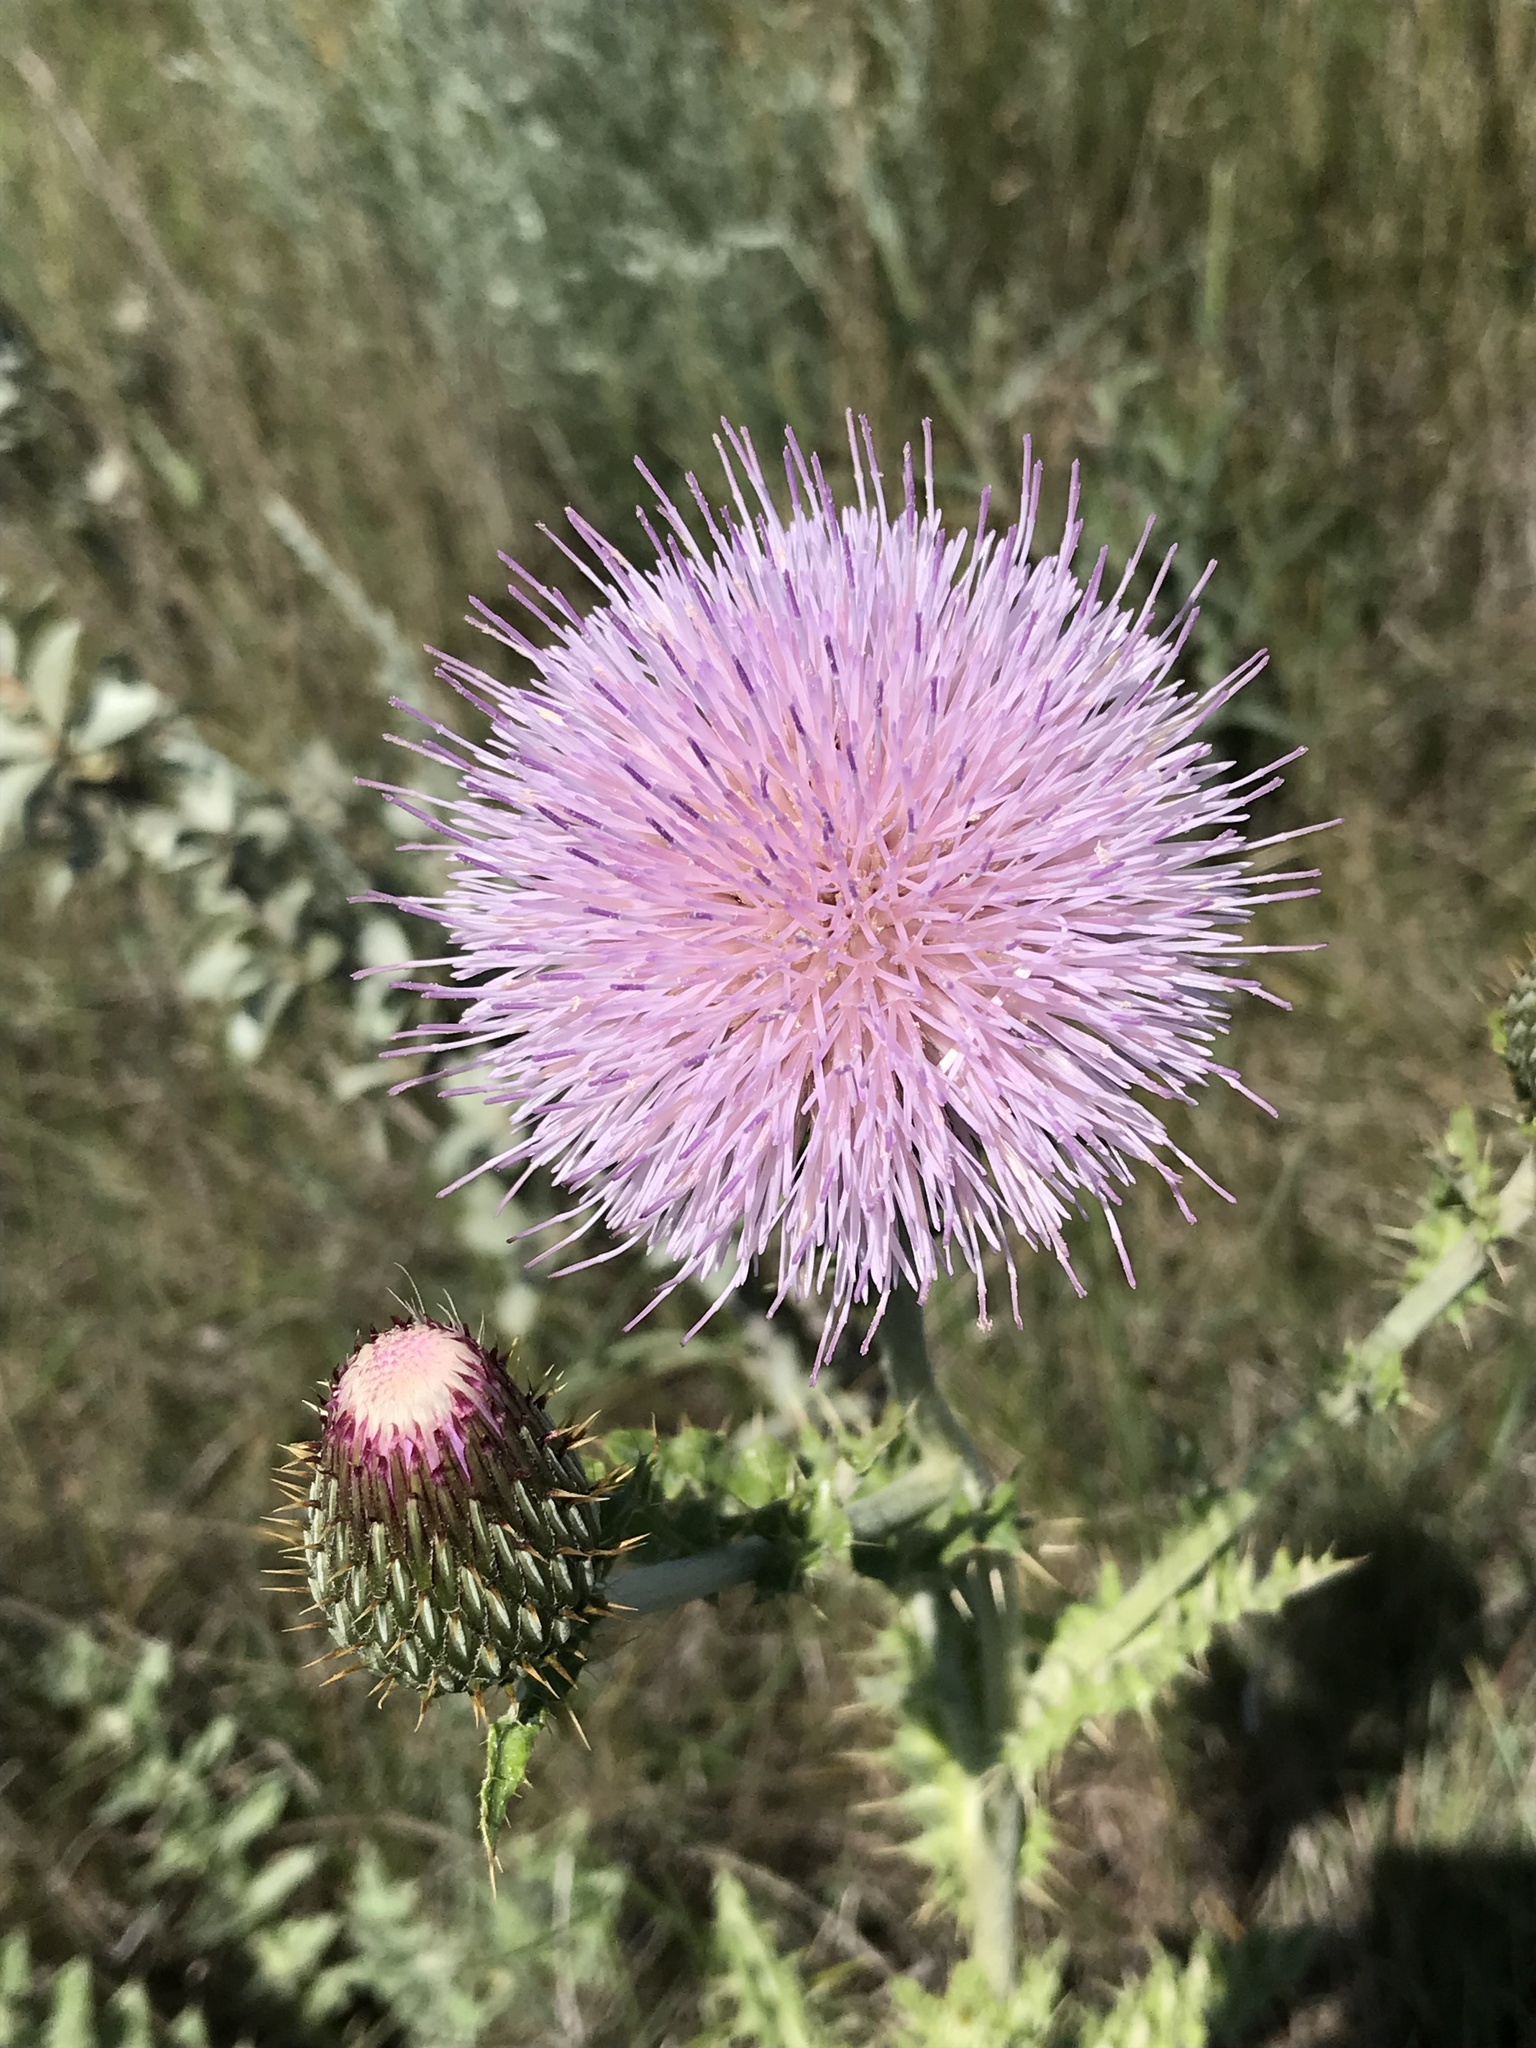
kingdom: Plantae
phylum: Tracheophyta
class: Magnoliopsida
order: Asterales
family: Asteraceae
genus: Cirsium
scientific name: Cirsium undulatum
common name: Pasture thistle
